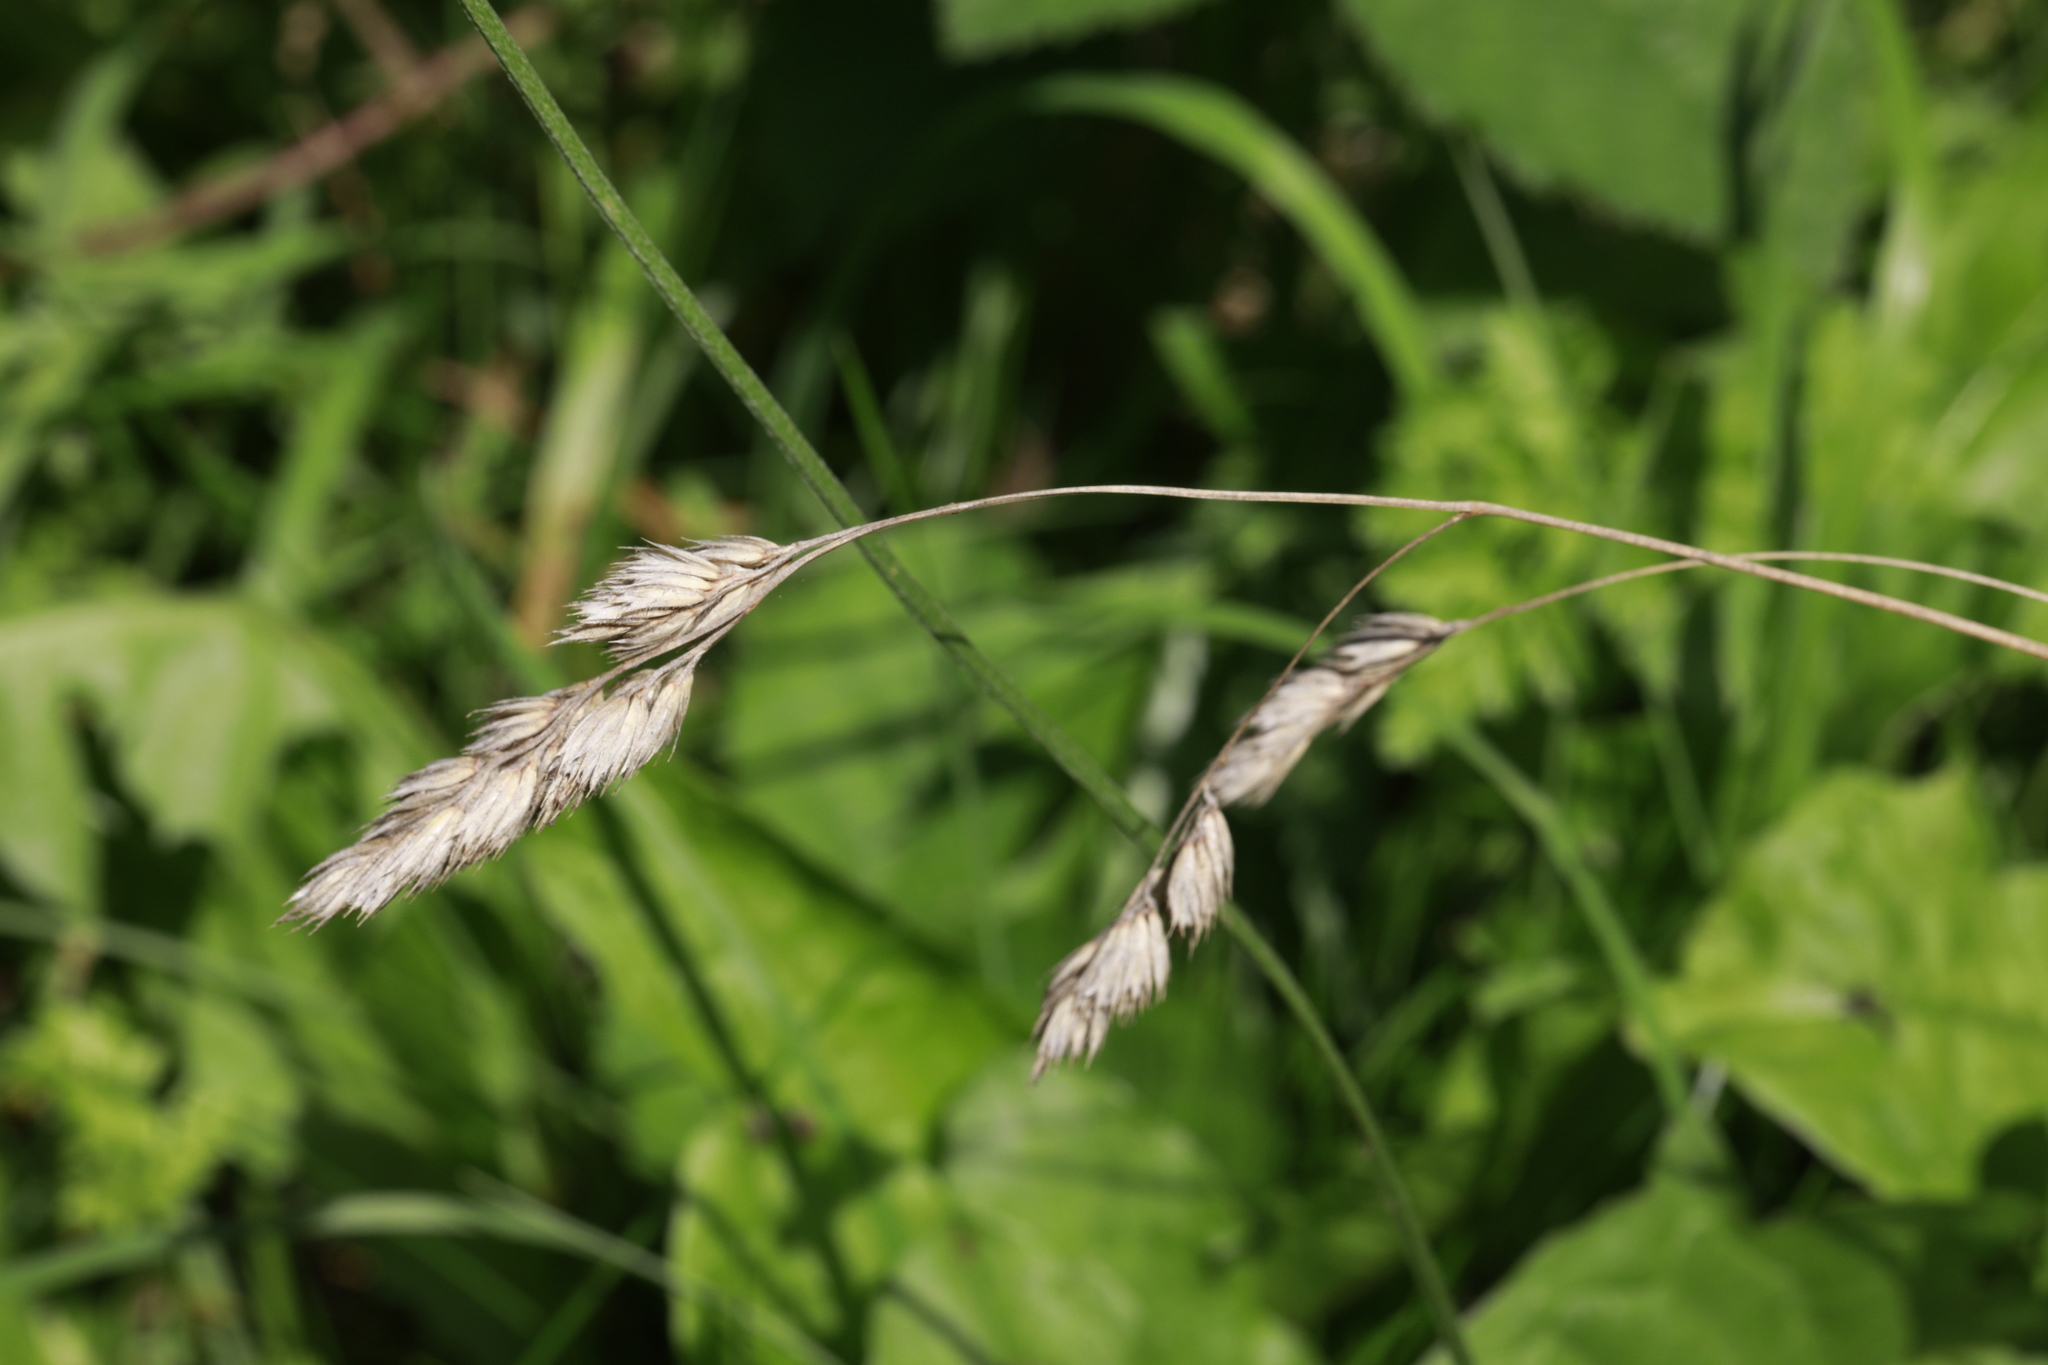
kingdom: Plantae
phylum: Tracheophyta
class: Liliopsida
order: Poales
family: Poaceae
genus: Dactylis
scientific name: Dactylis glomerata
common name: Orchardgrass
